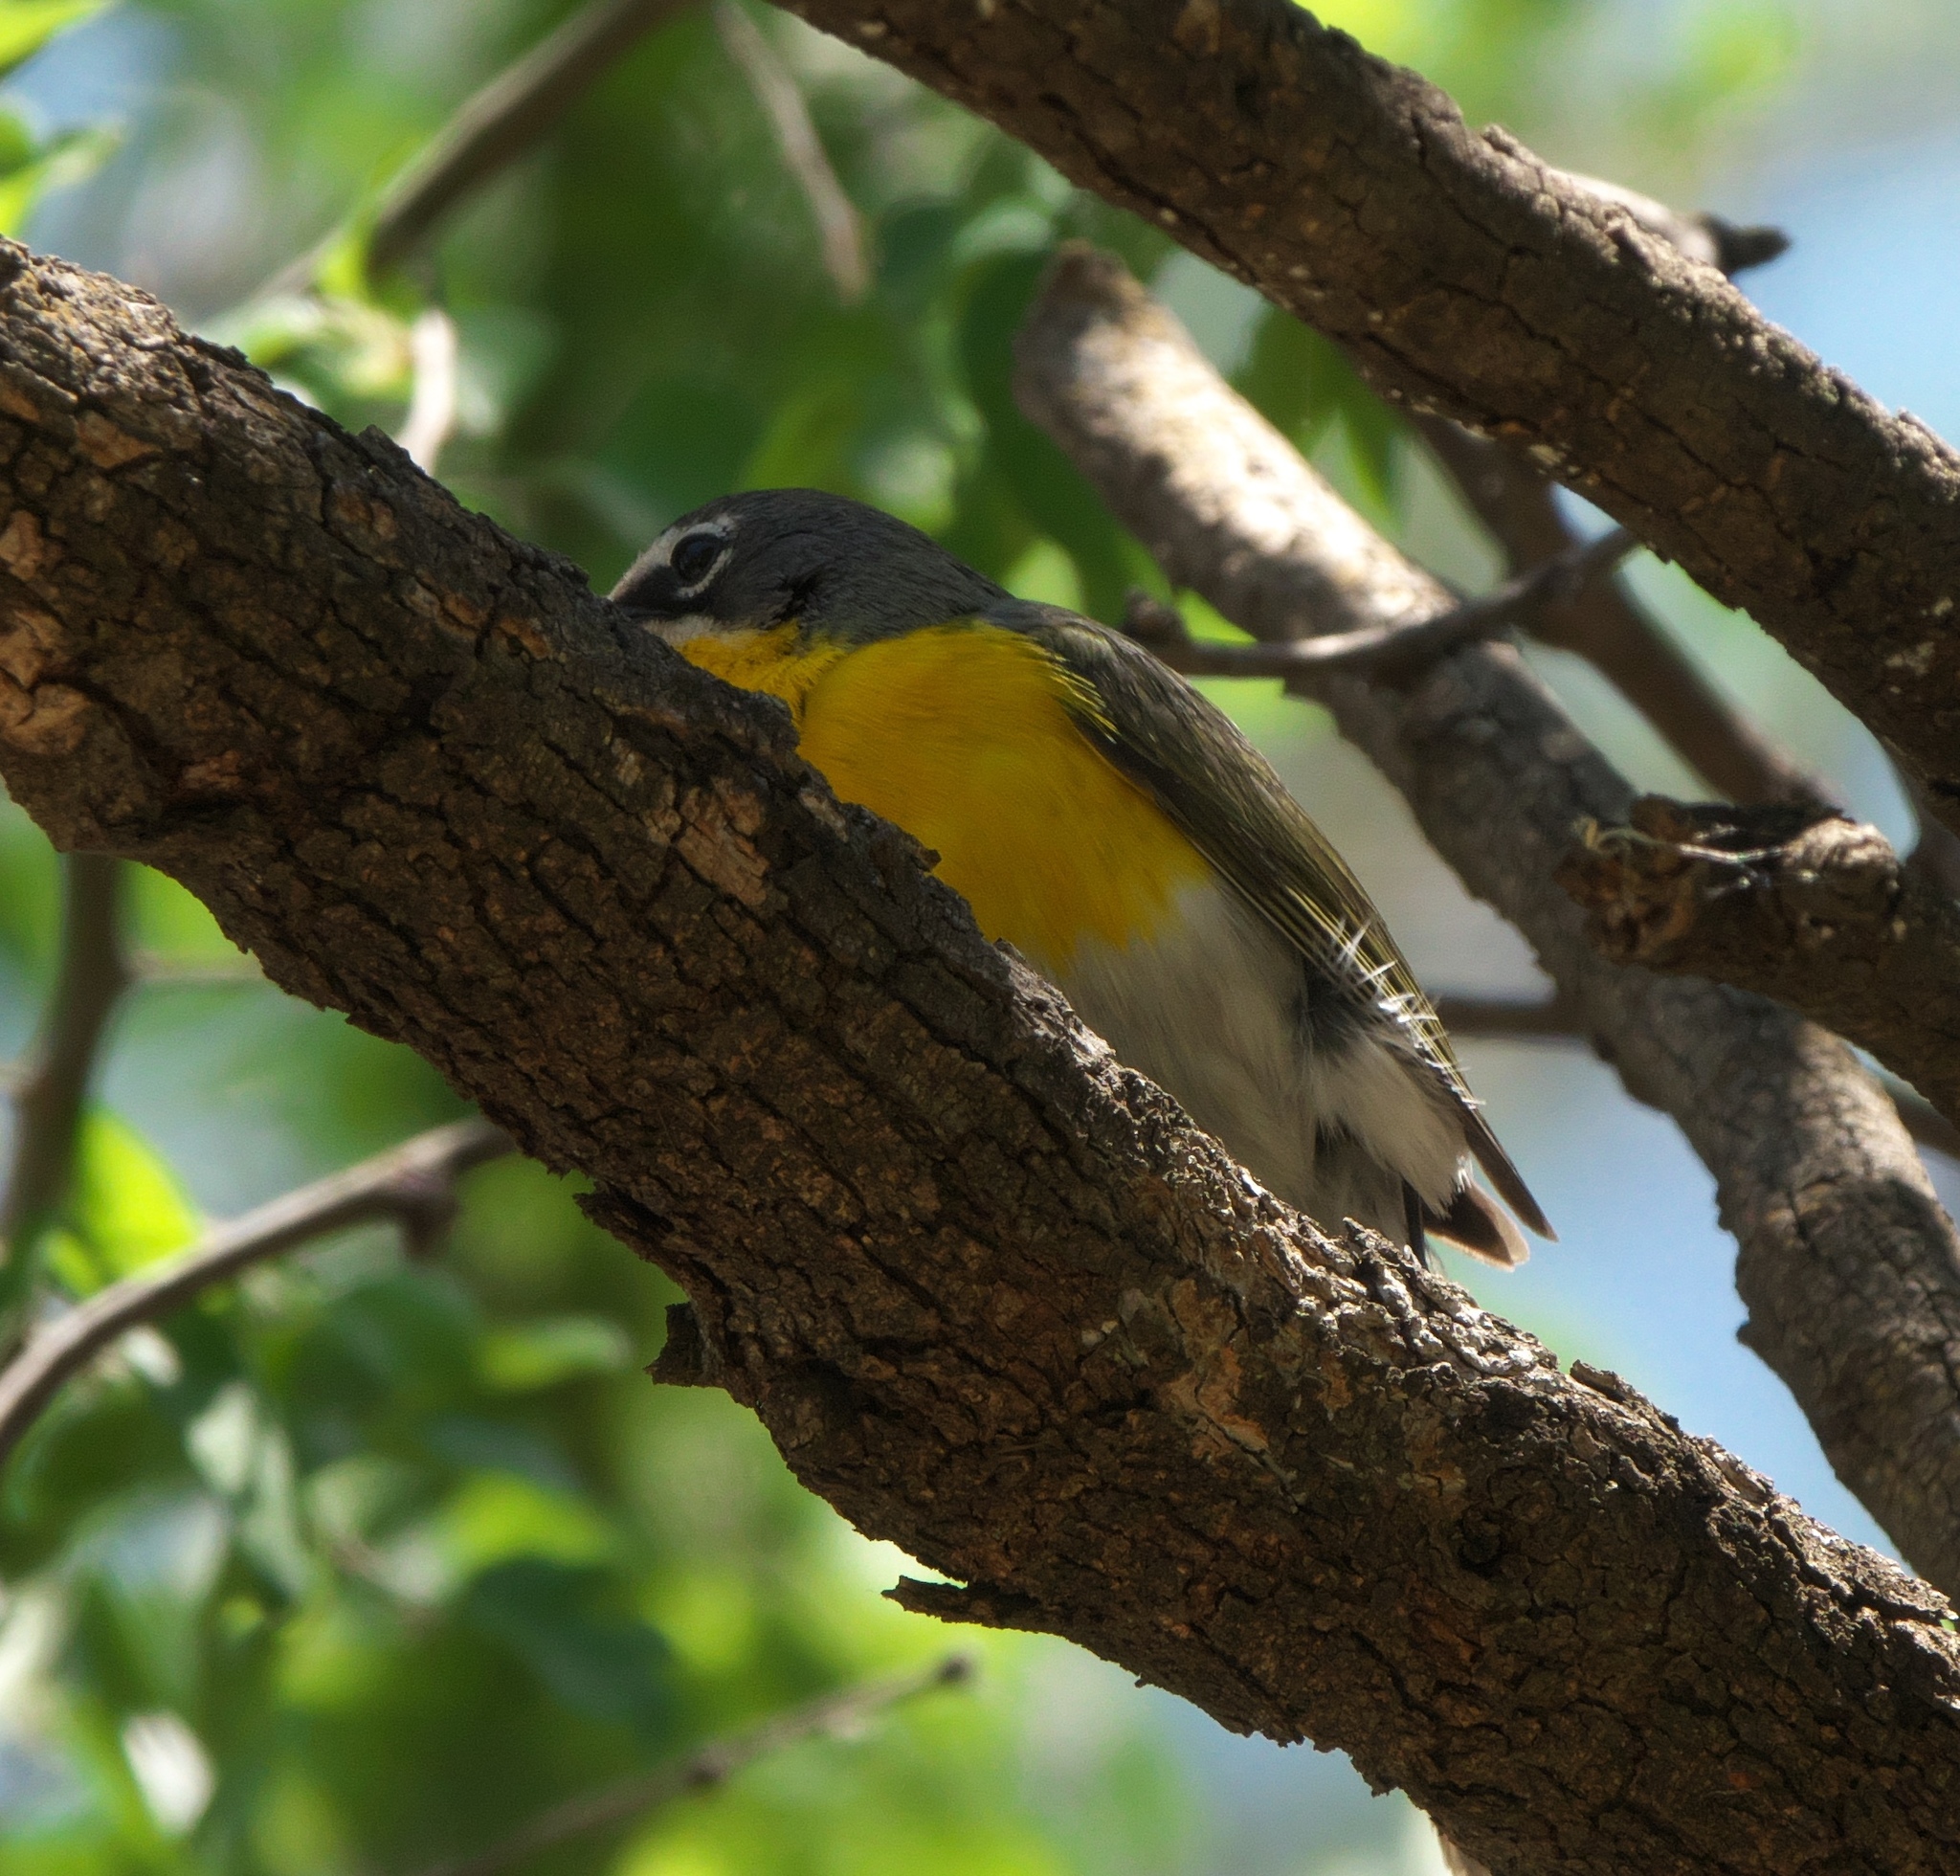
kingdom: Animalia
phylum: Chordata
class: Aves
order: Passeriformes
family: Parulidae
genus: Icteria
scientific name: Icteria virens
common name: Yellow-breasted chat
